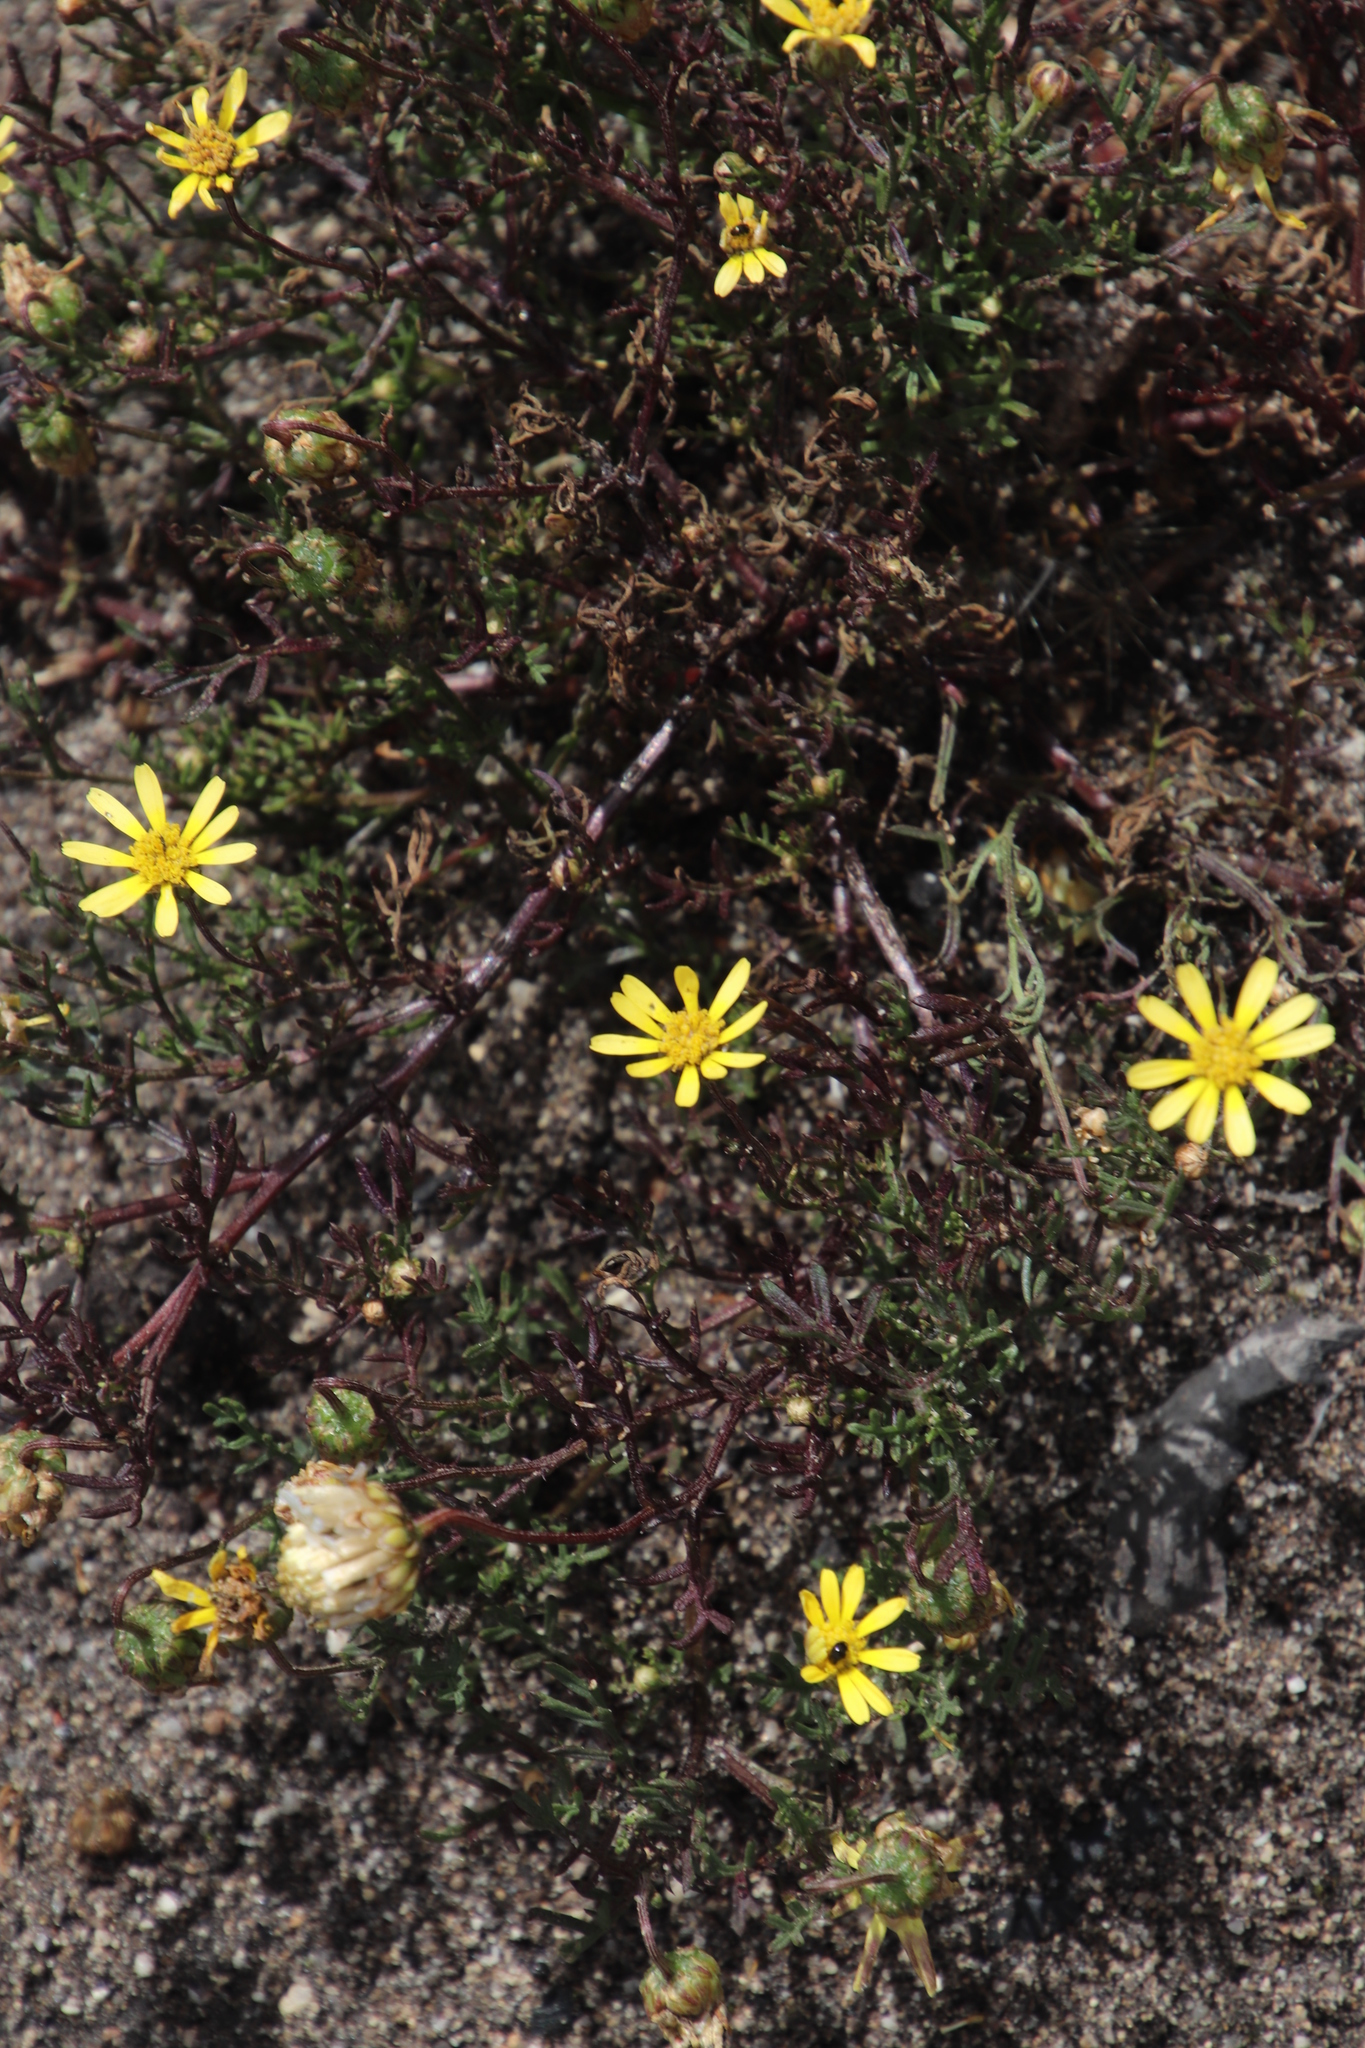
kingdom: Plantae
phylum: Tracheophyta
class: Magnoliopsida
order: Asterales
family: Asteraceae
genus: Ursinia
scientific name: Ursinia paleacea
